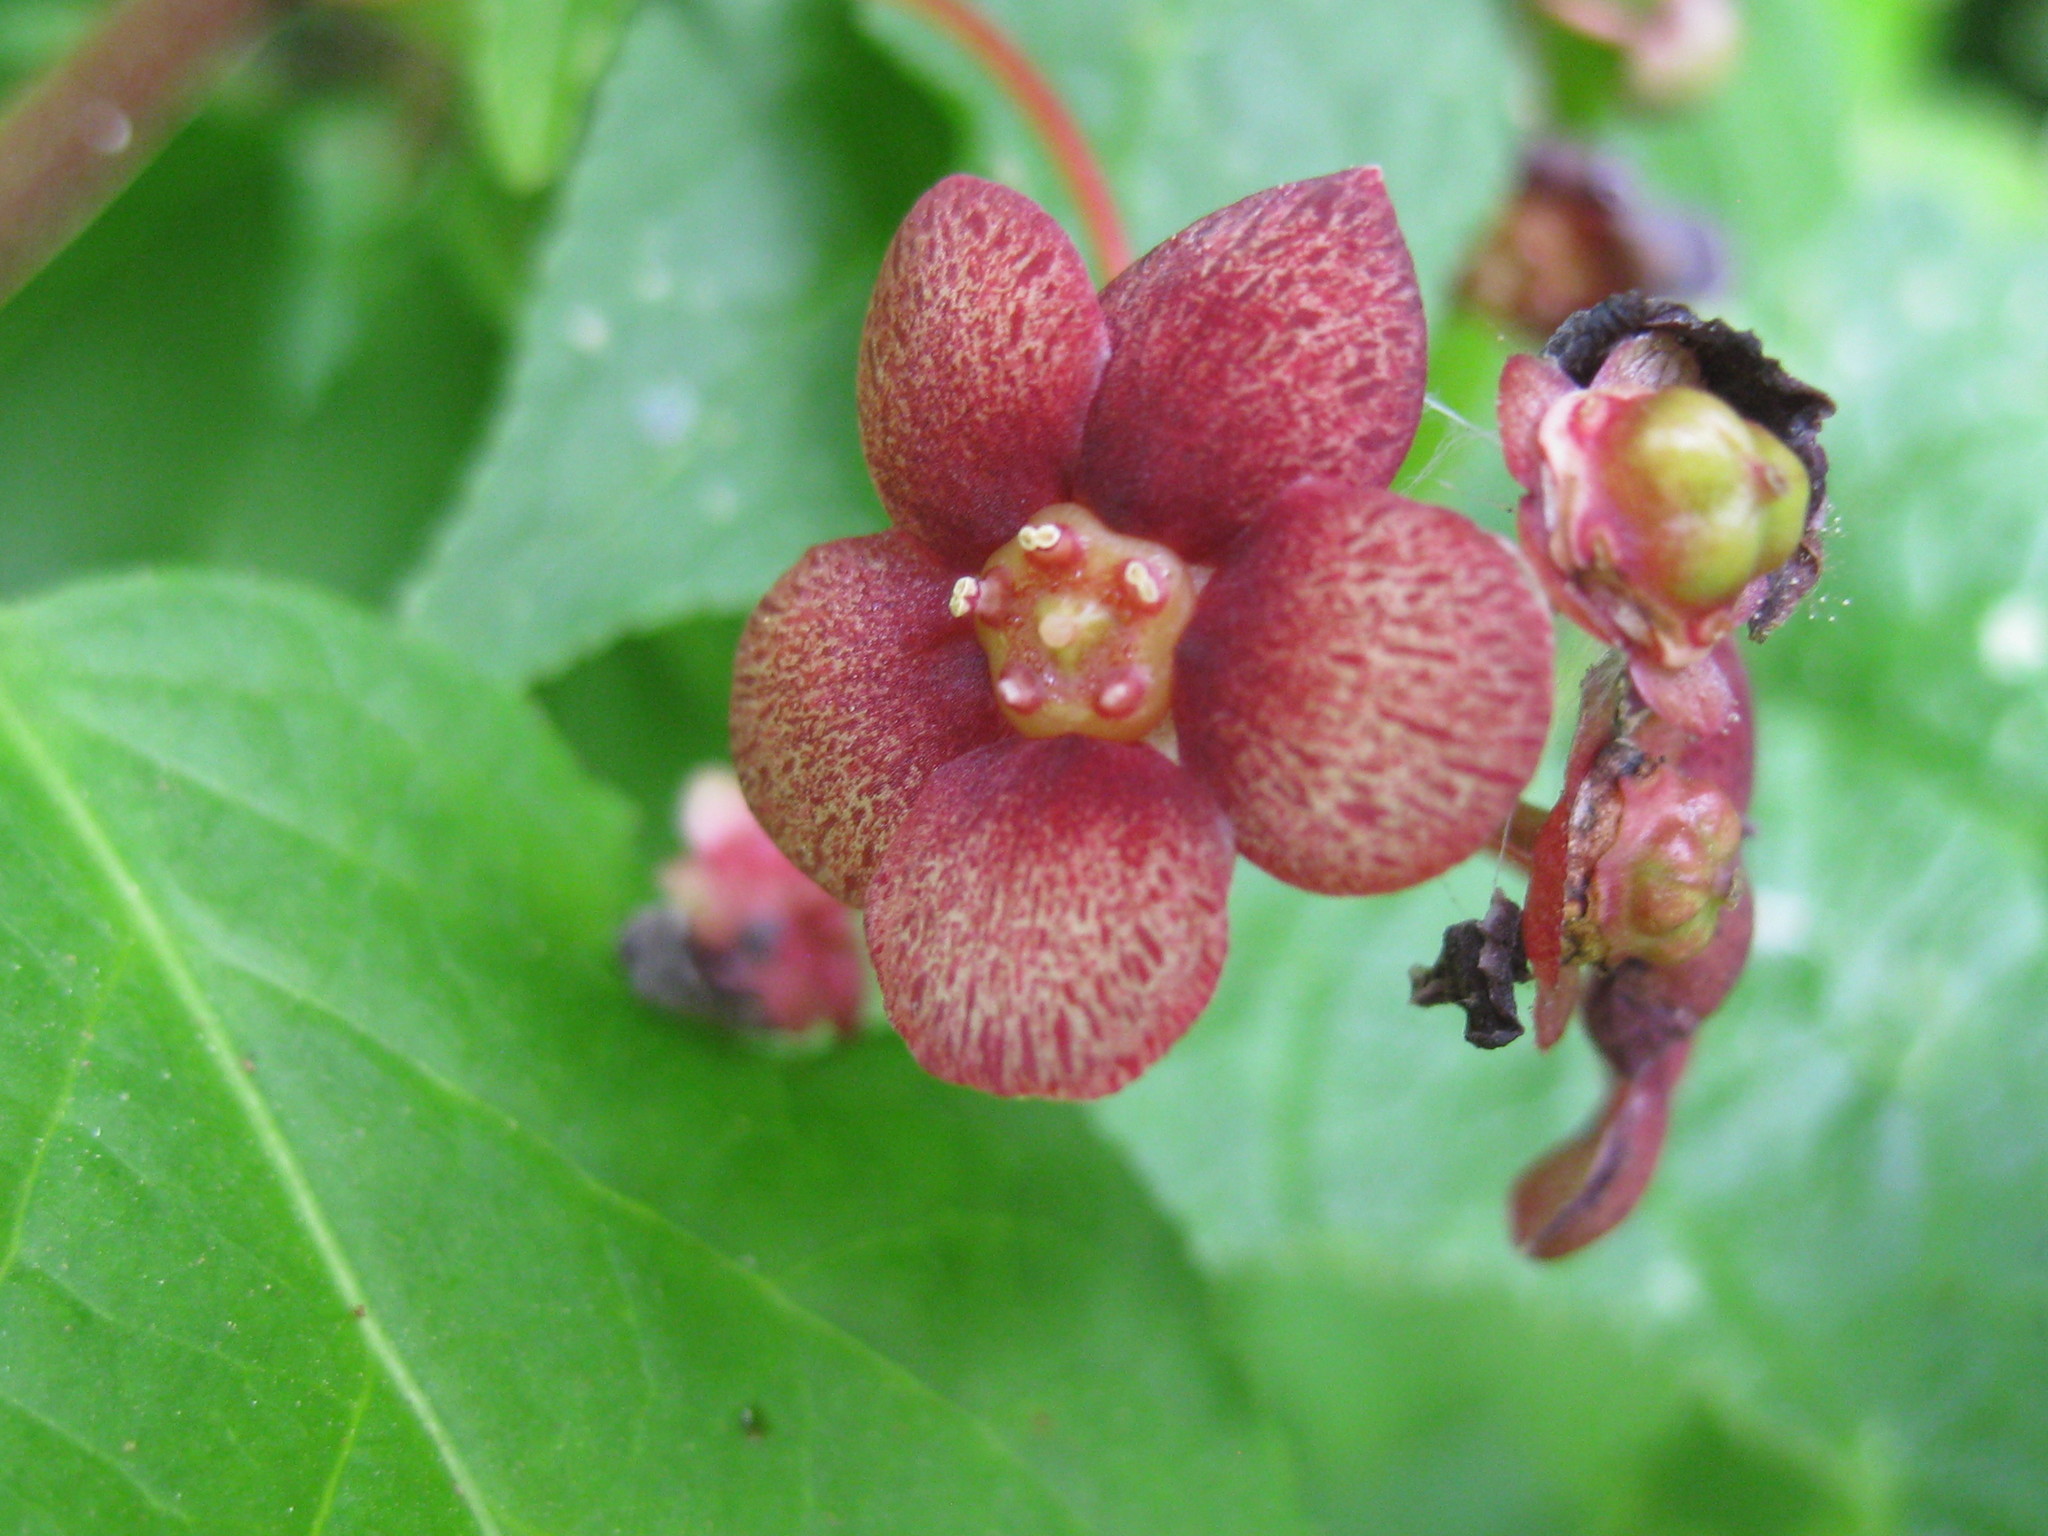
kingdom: Plantae
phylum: Tracheophyta
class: Magnoliopsida
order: Celastrales
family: Celastraceae
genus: Euonymus
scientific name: Euonymus occidentalis
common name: Western burningbush
